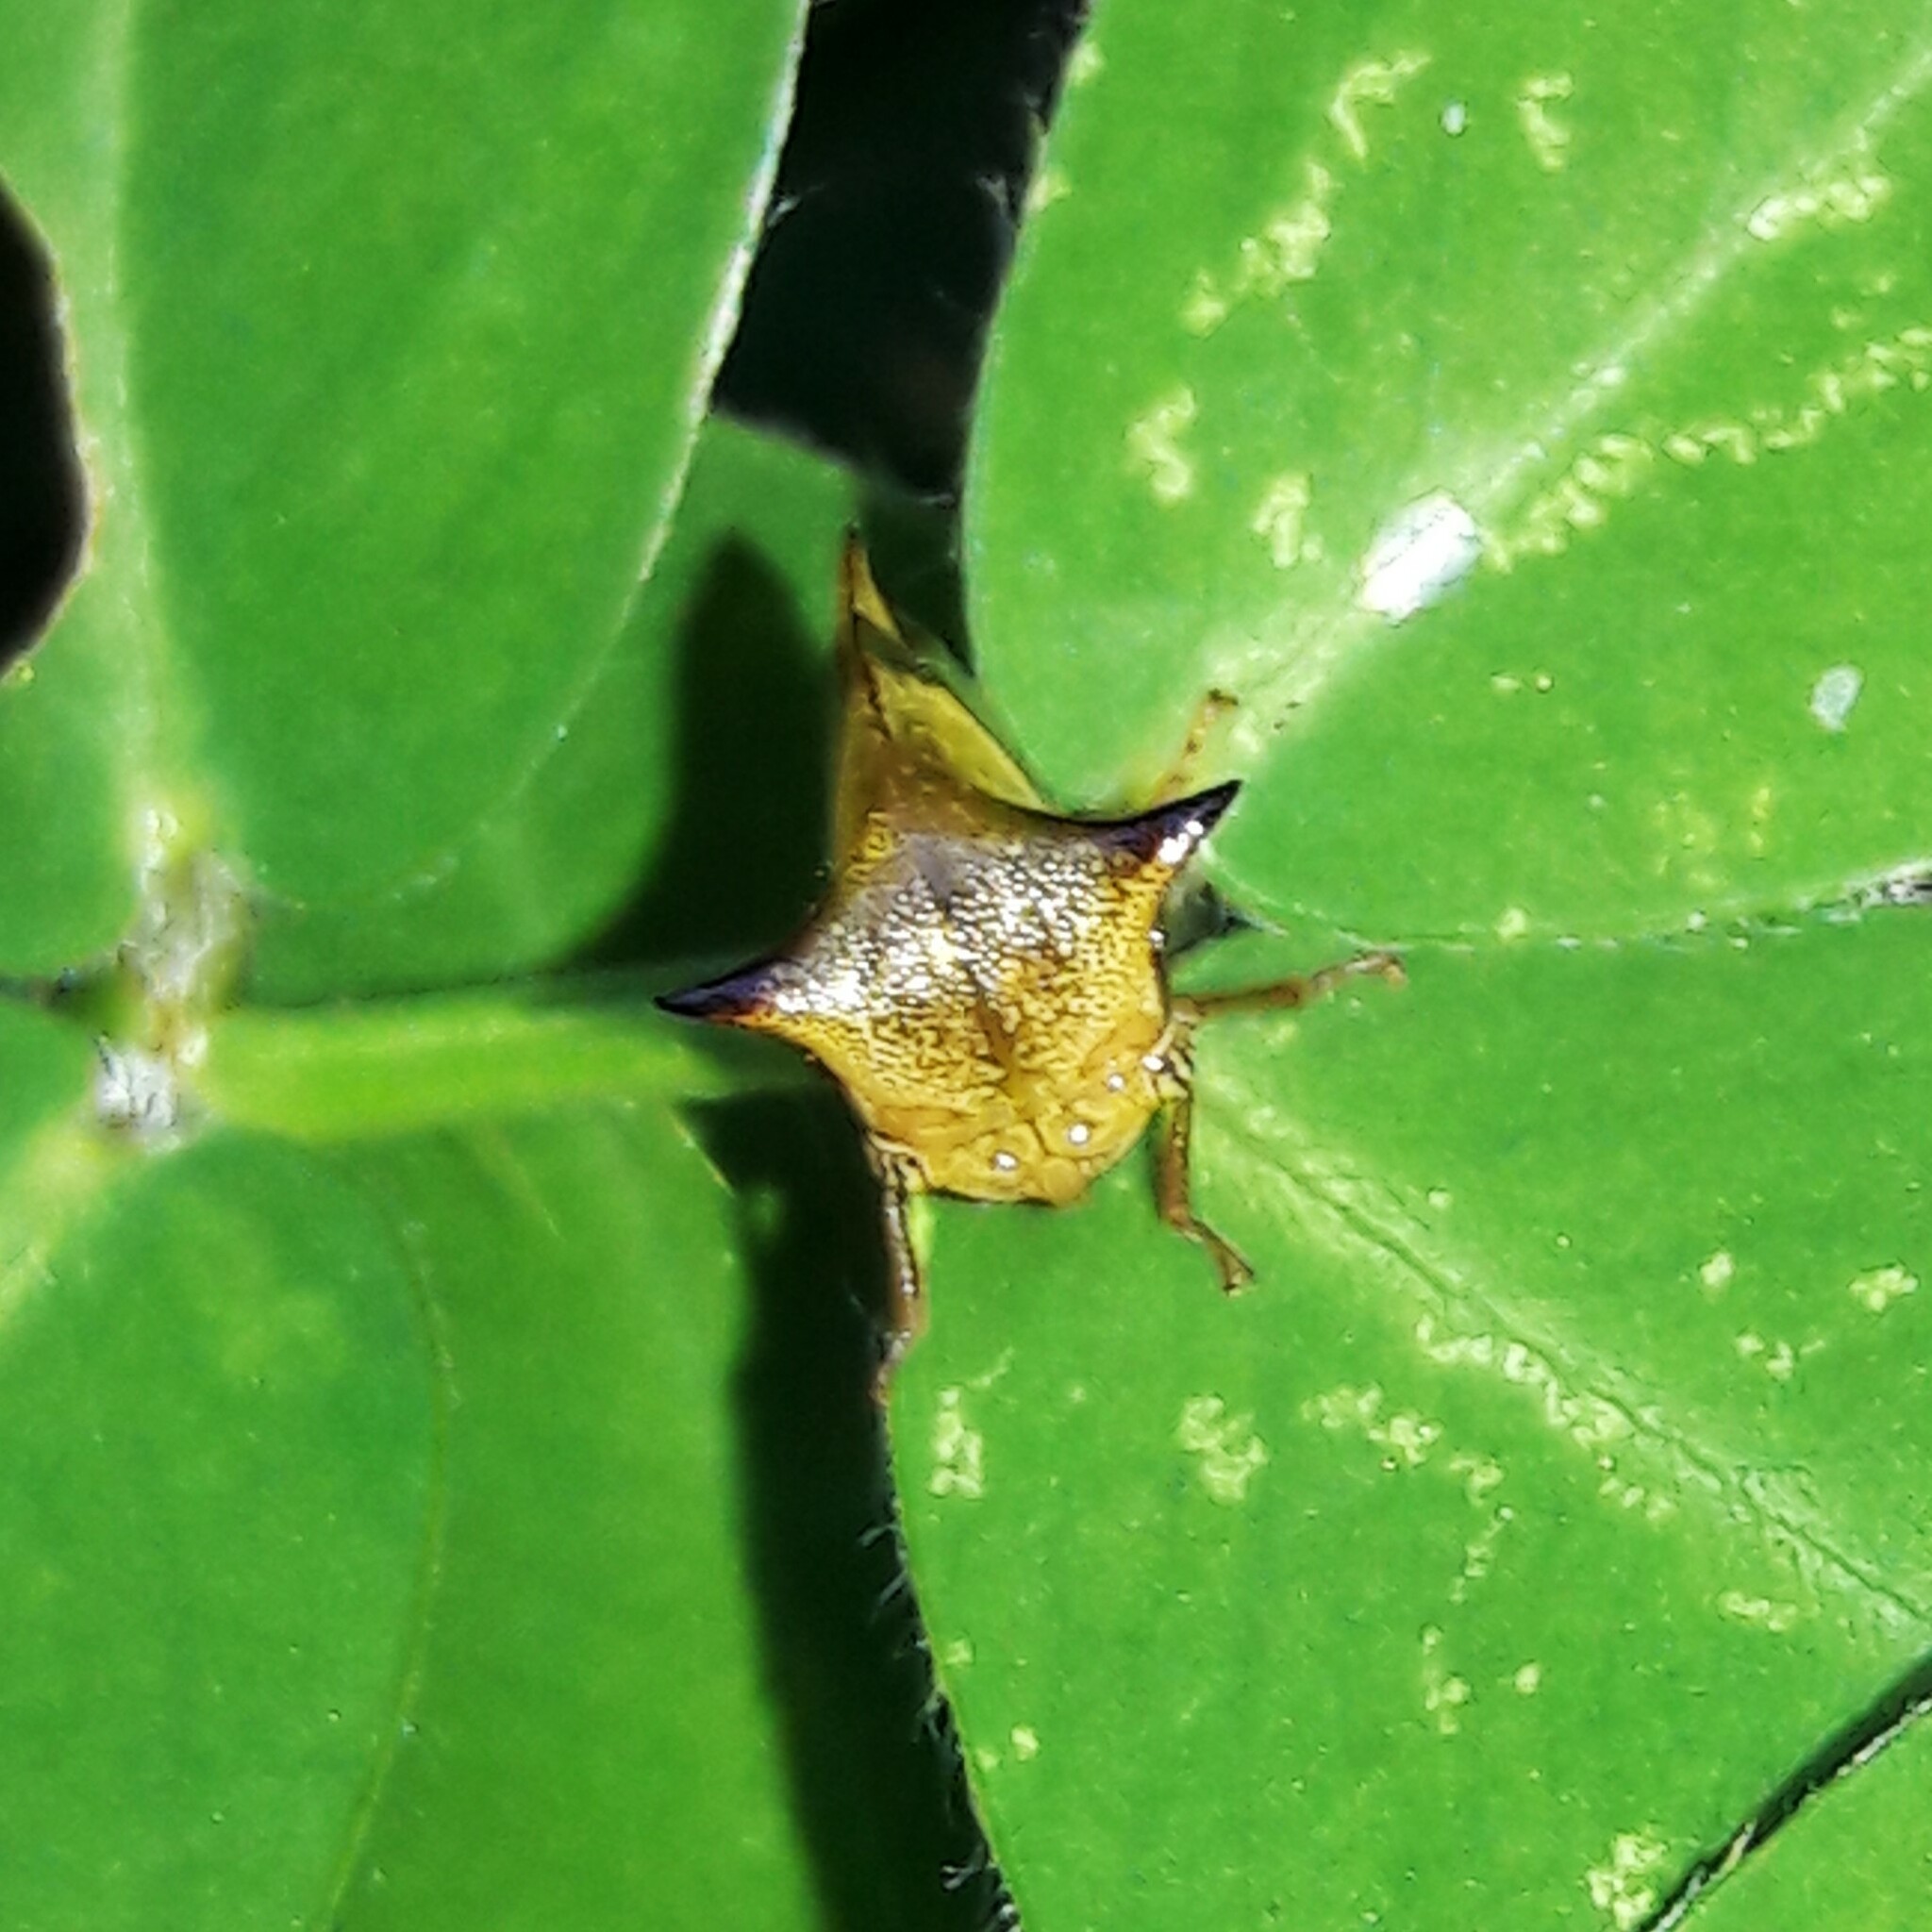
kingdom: Animalia
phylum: Arthropoda
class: Insecta
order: Hemiptera
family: Membracidae
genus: Ceresa
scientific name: Ceresa paulistana
